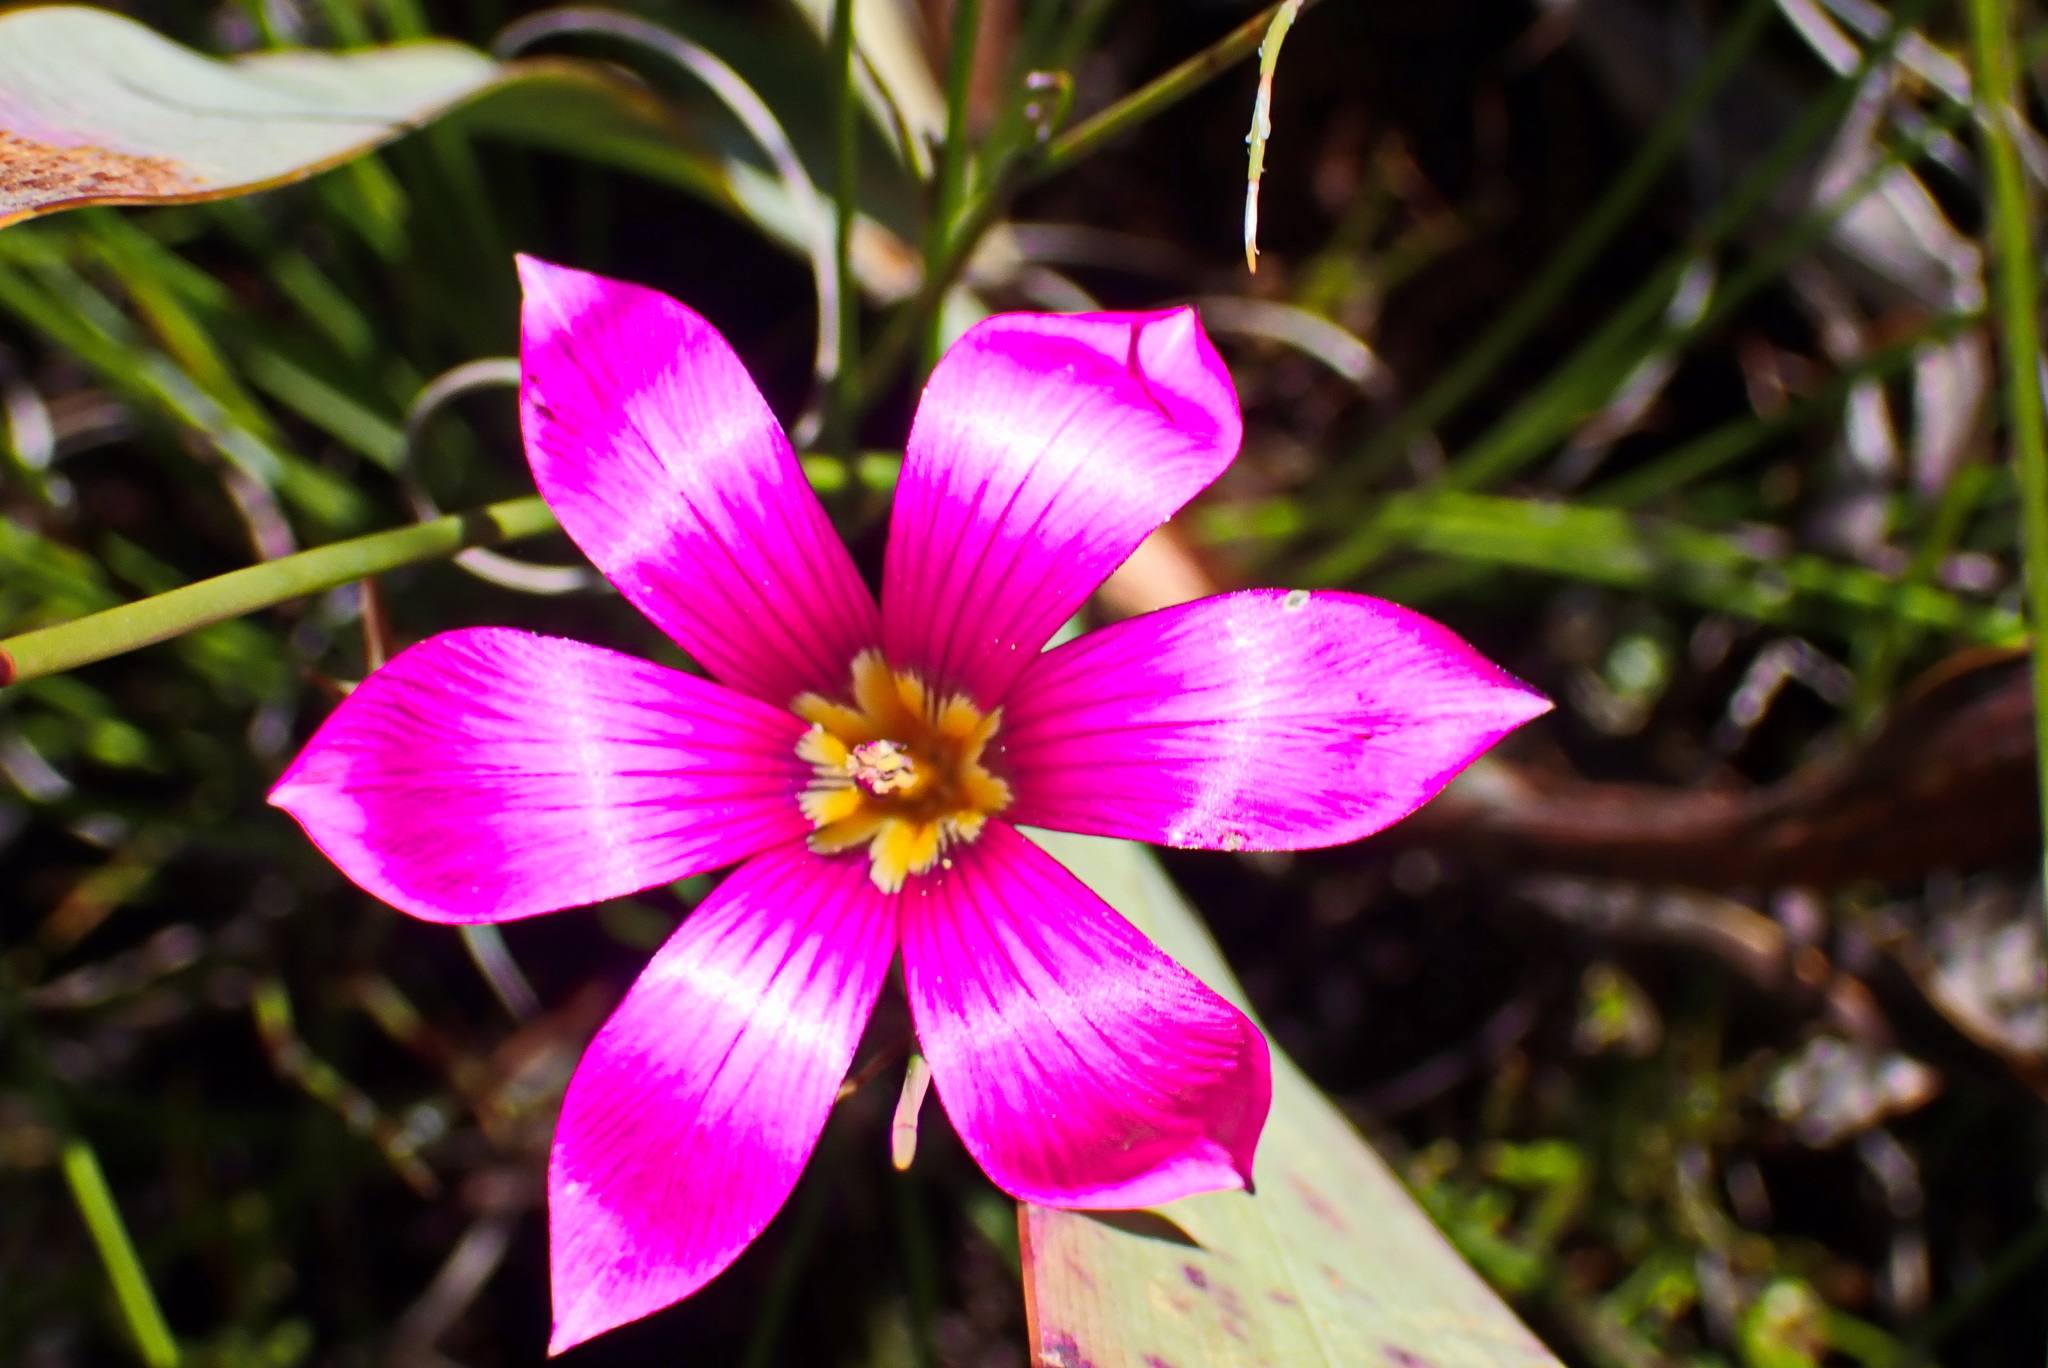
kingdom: Plantae
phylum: Tracheophyta
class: Liliopsida
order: Asparagales
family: Iridaceae
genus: Romulea
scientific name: Romulea dichotoma
